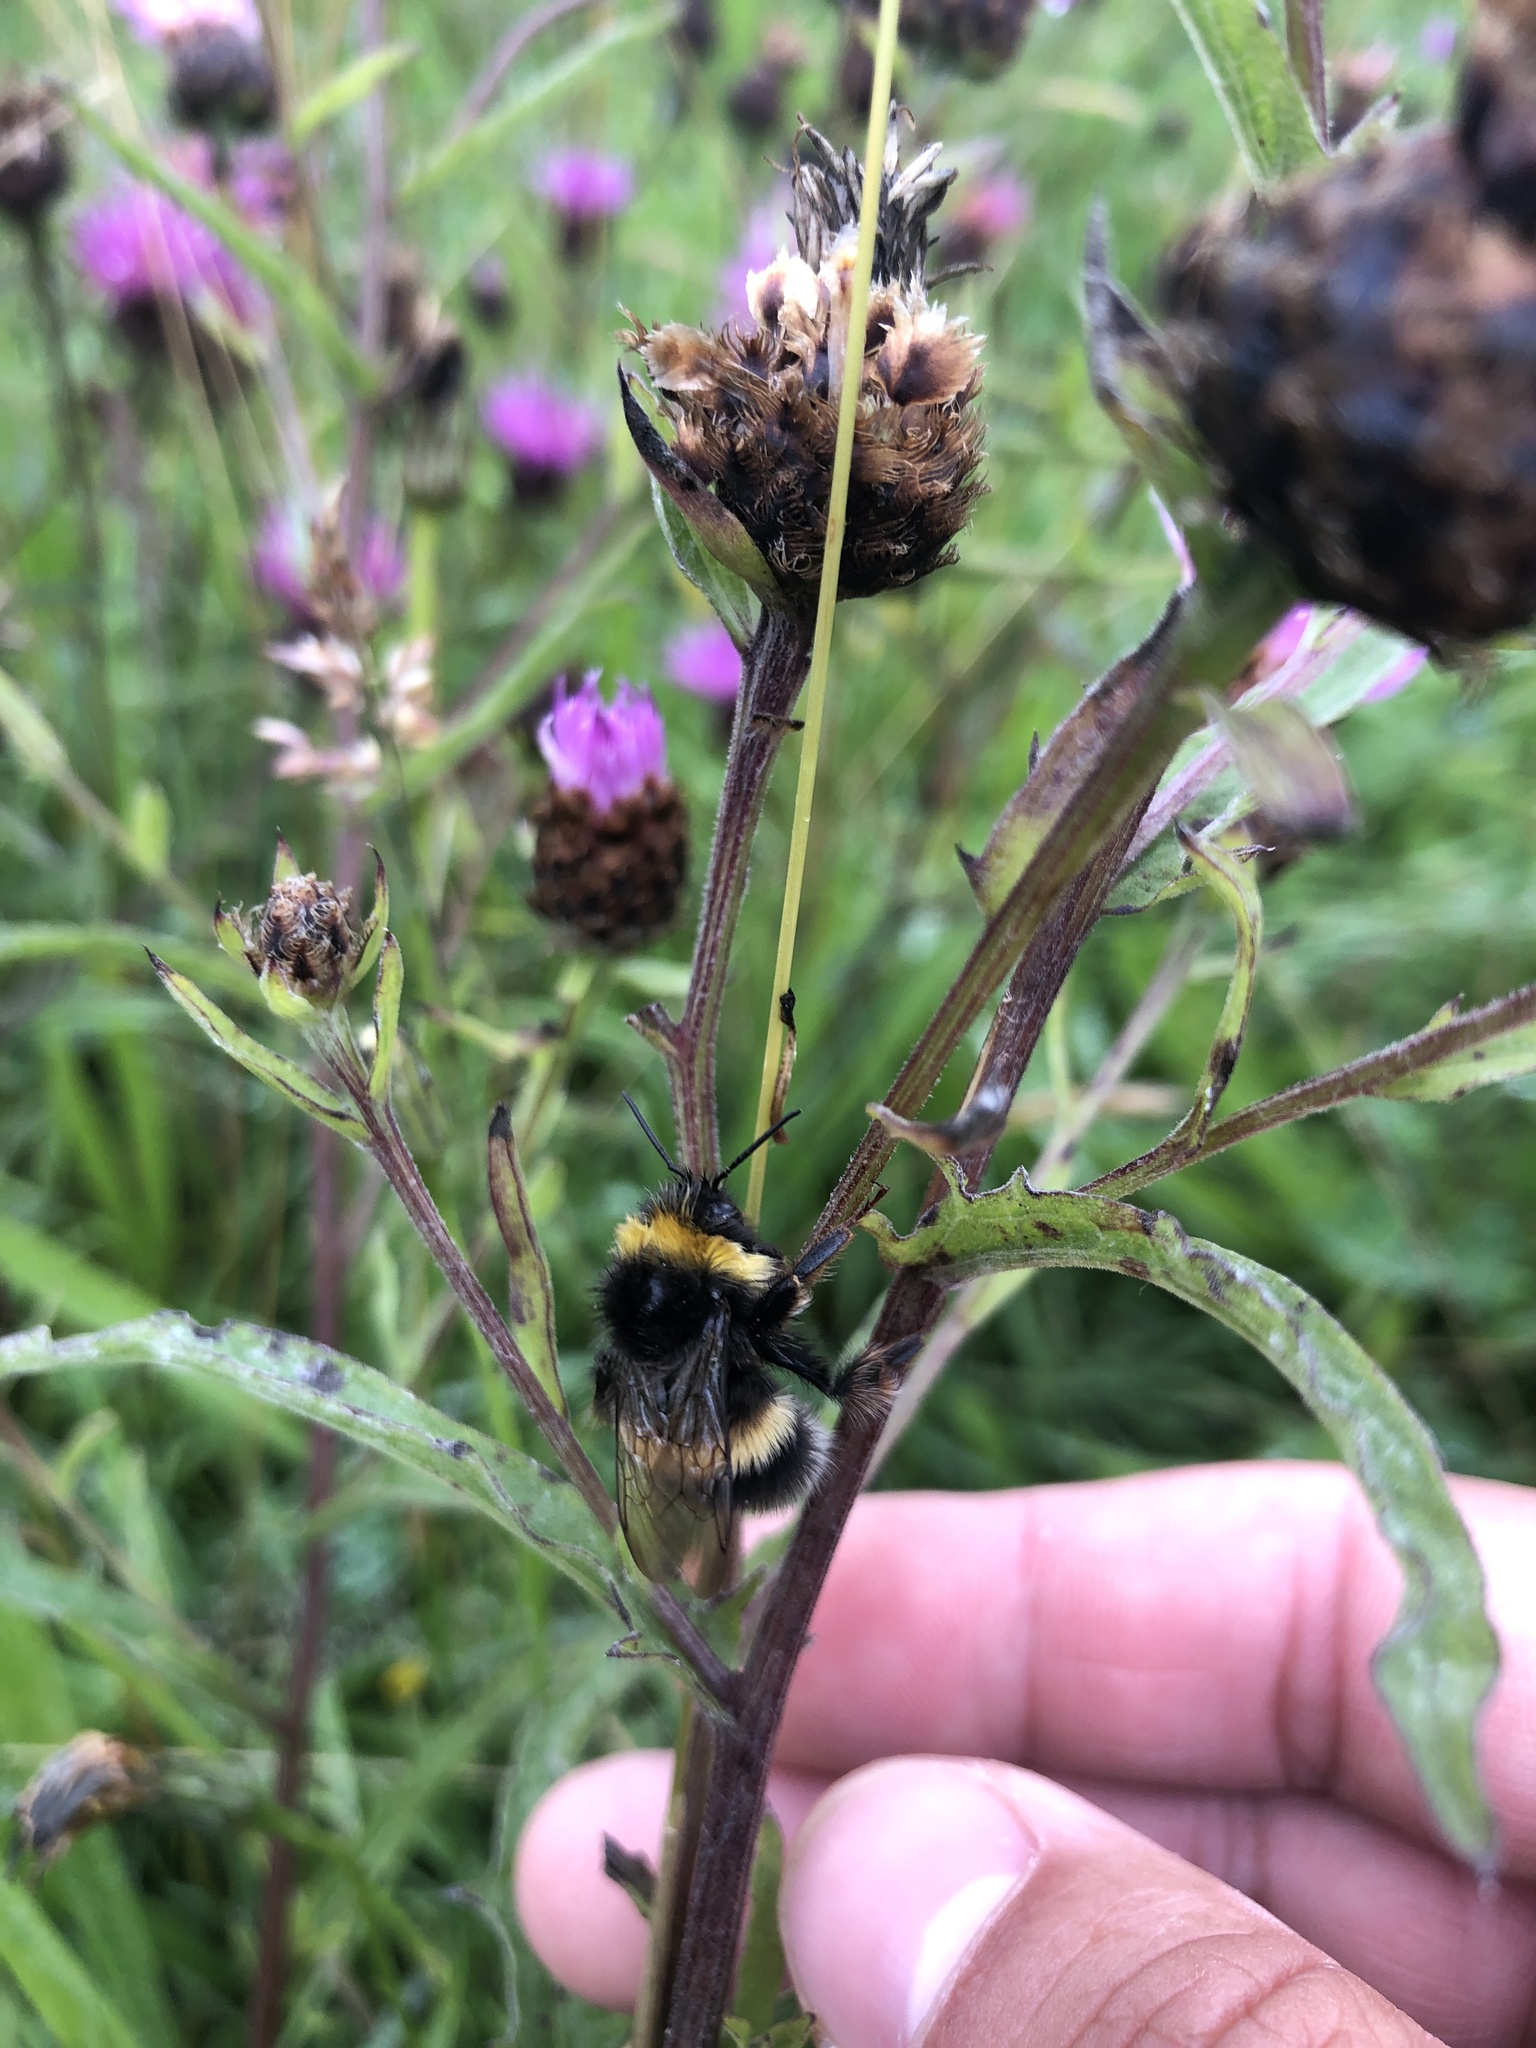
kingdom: Animalia
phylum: Arthropoda
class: Insecta
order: Hymenoptera
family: Apidae
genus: Bombus
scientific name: Bombus terrestris
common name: Buff-tailed bumblebee
